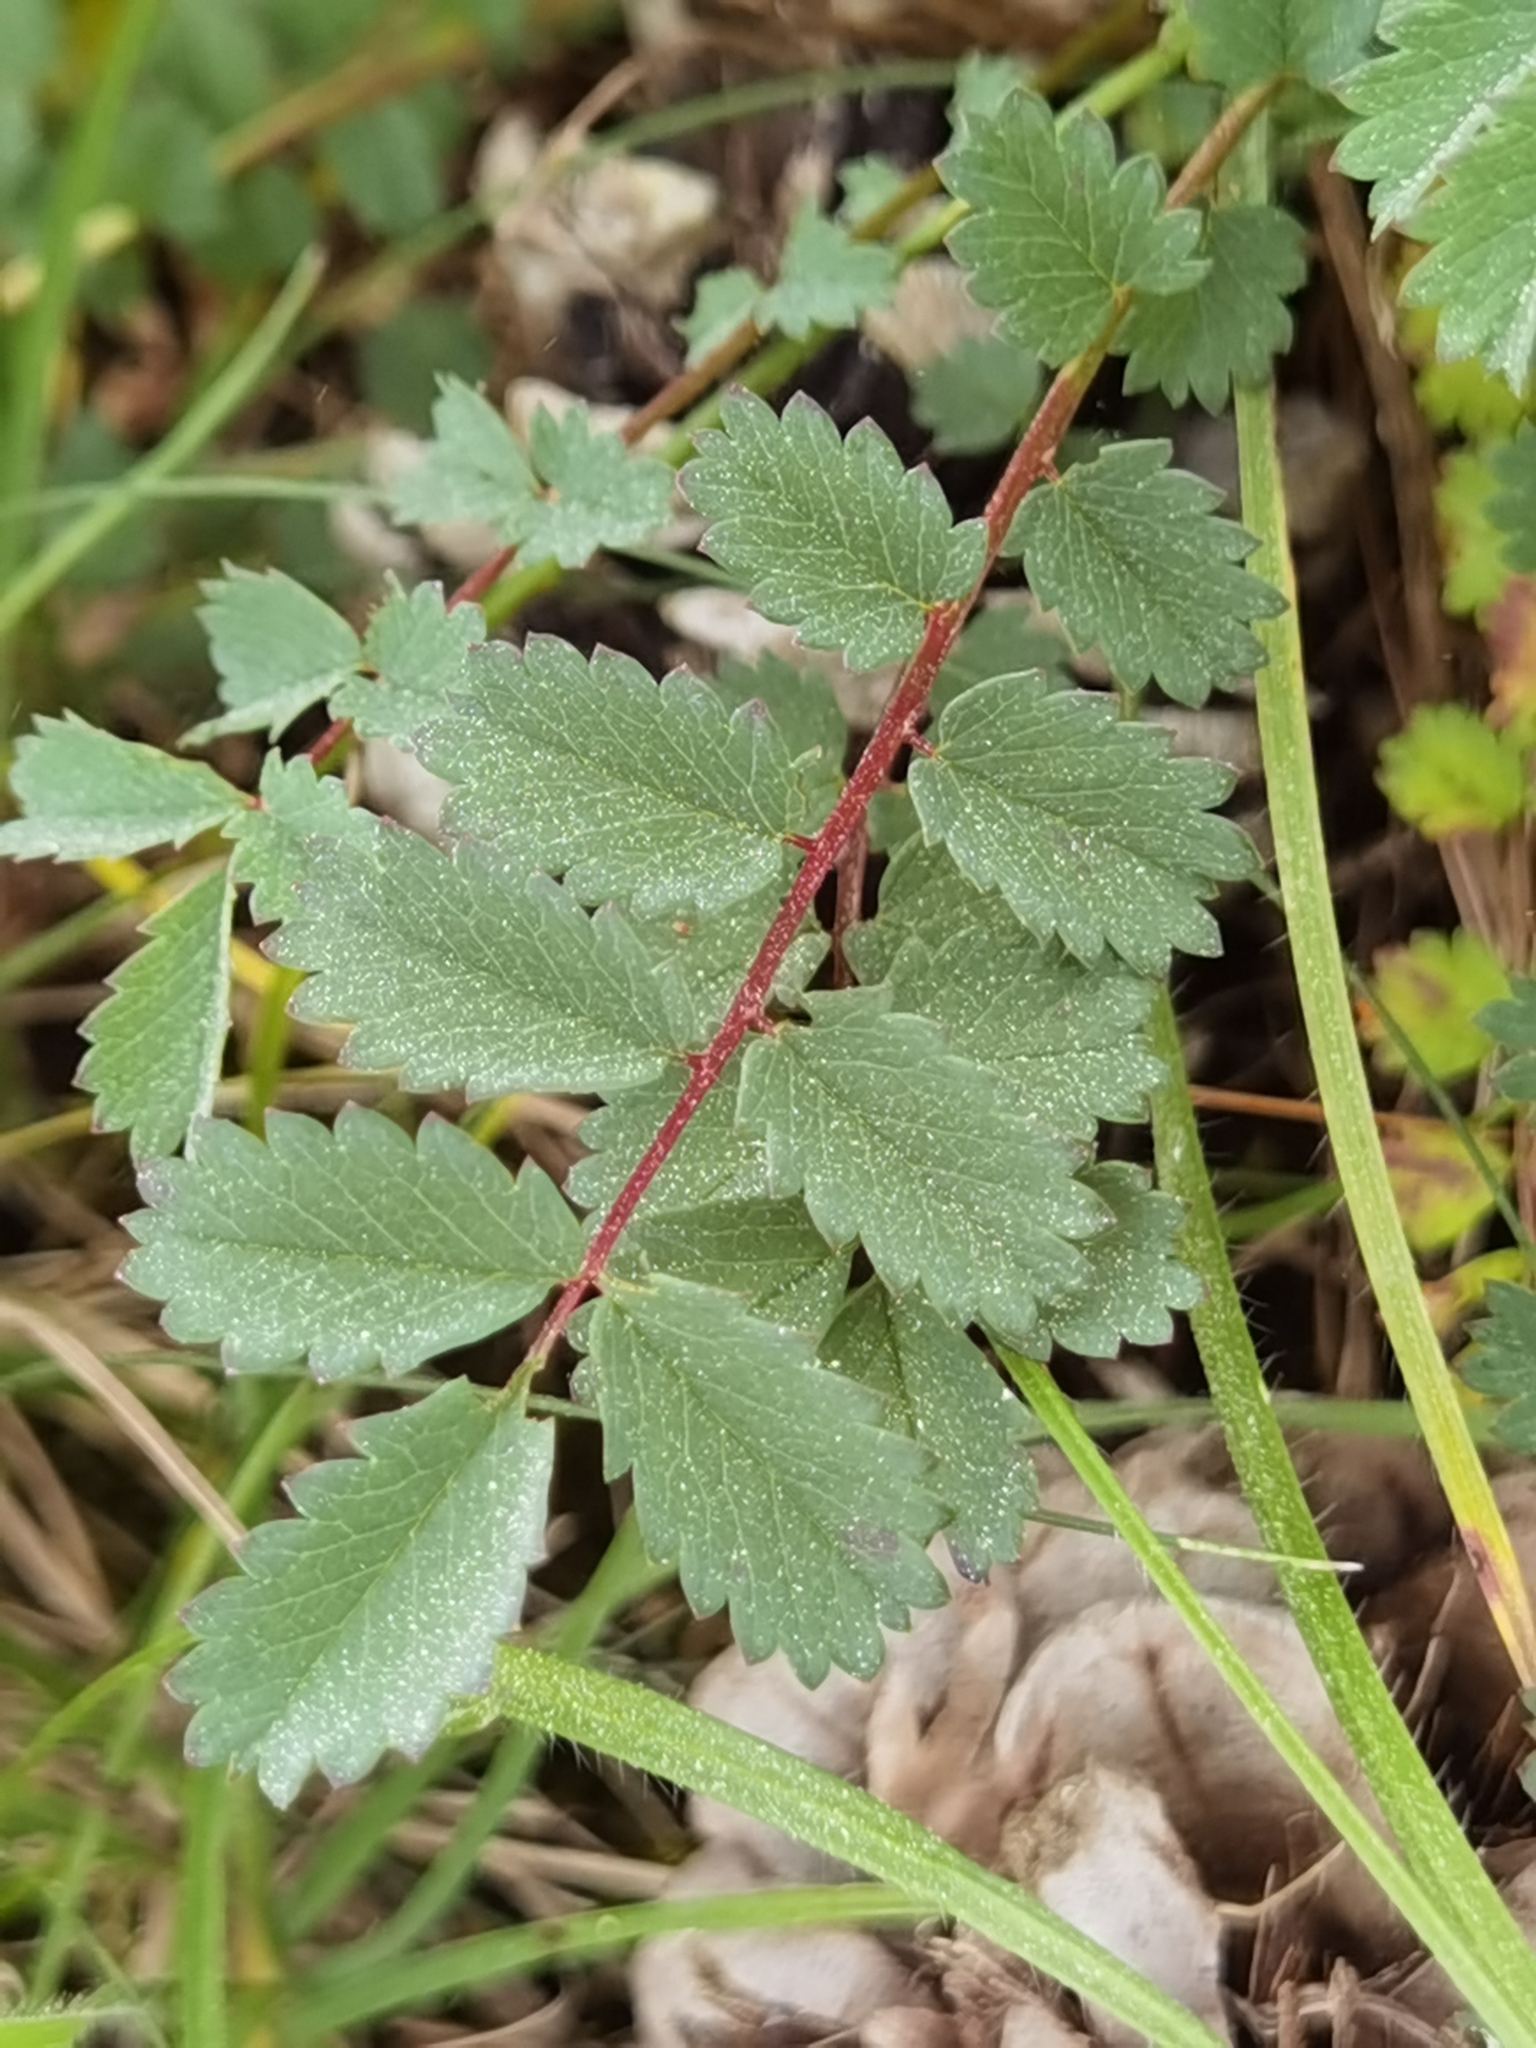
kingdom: Plantae
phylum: Tracheophyta
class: Magnoliopsida
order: Rosales
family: Rosaceae
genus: Poterium
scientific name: Poterium sanguisorba
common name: Salad burnet
